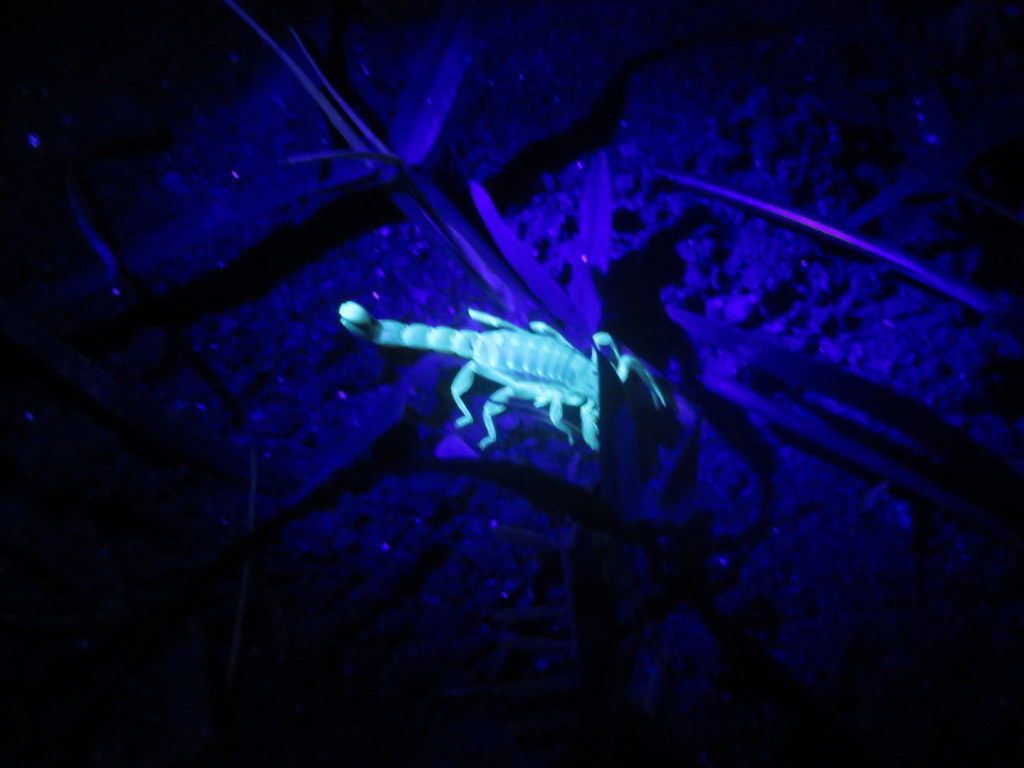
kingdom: Animalia
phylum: Arthropoda
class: Arachnida
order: Scorpiones
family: Bothriuridae
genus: Brachistosternus
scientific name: Brachistosternus ferrugineus
